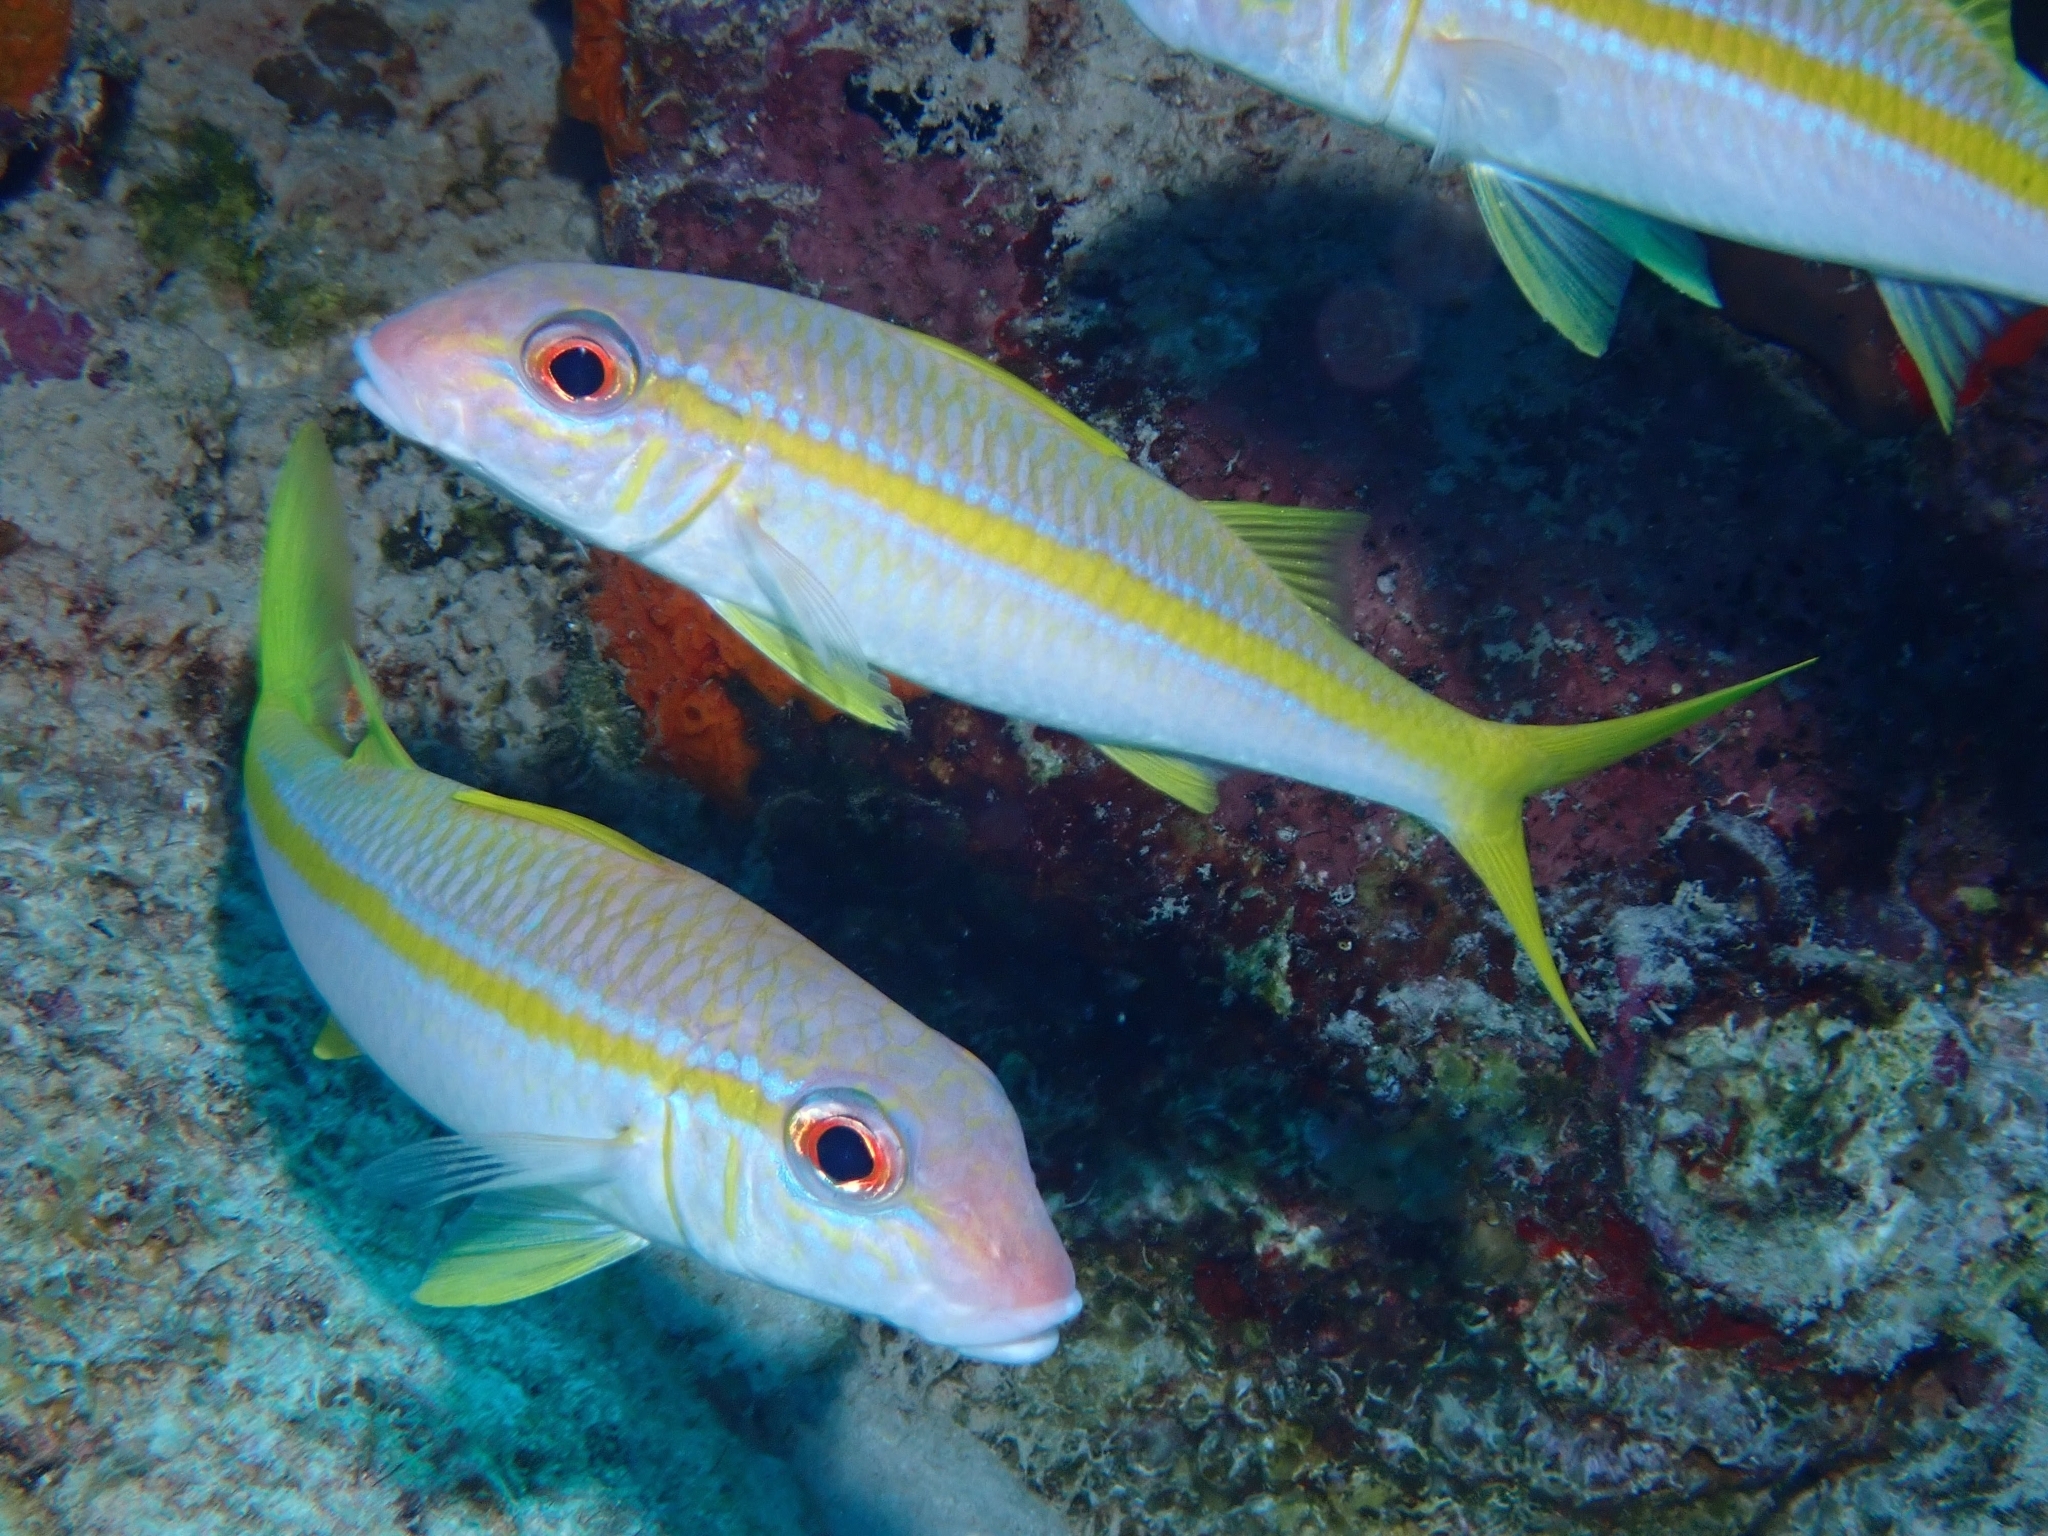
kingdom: Animalia
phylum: Chordata
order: Perciformes
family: Mullidae
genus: Mulloidichthys
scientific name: Mulloidichthys martinicus
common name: Yellow goatfish
